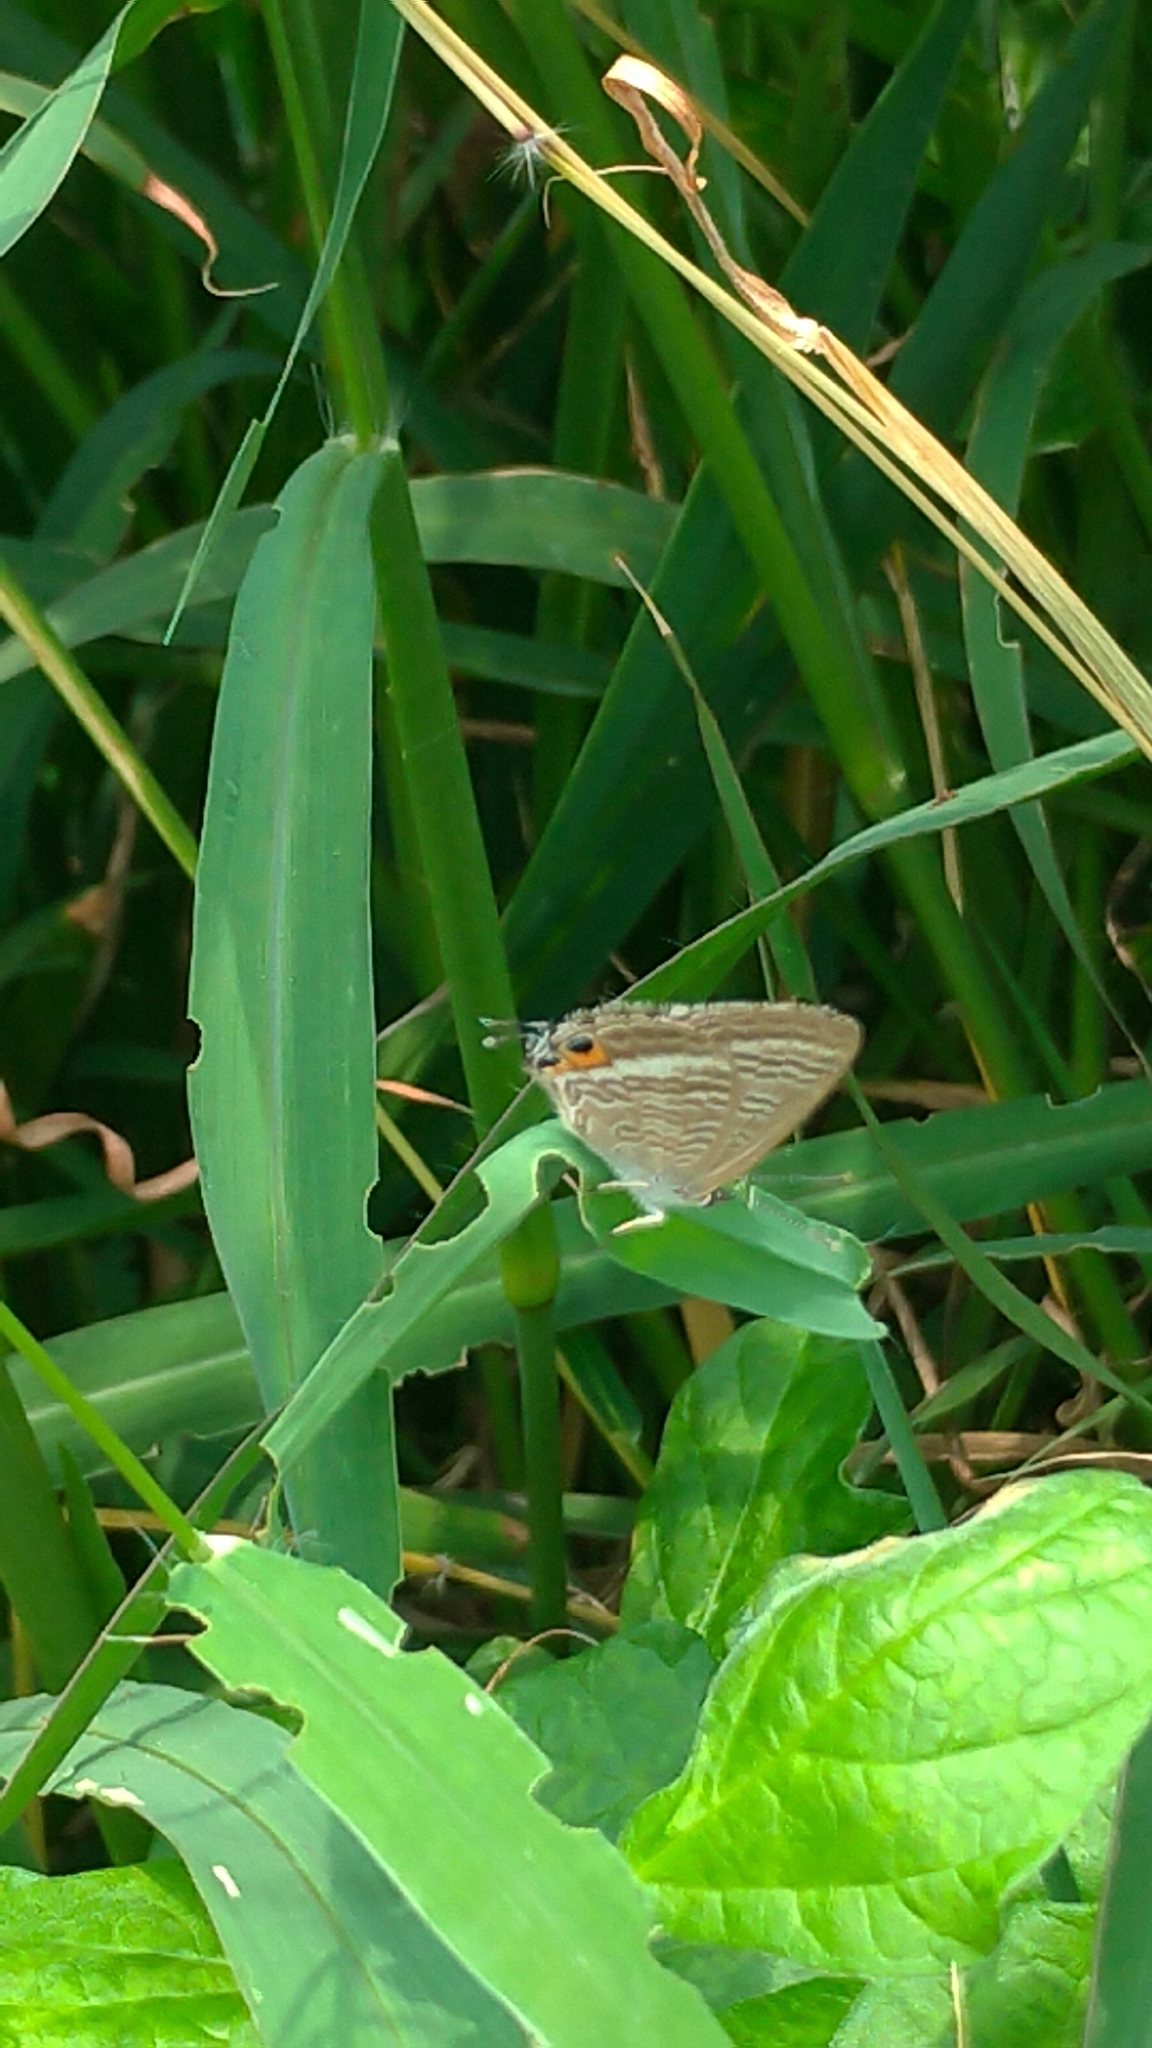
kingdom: Animalia
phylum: Arthropoda
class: Insecta
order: Lepidoptera
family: Lycaenidae
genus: Lampides
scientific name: Lampides boeticus
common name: Long-tailed blue
